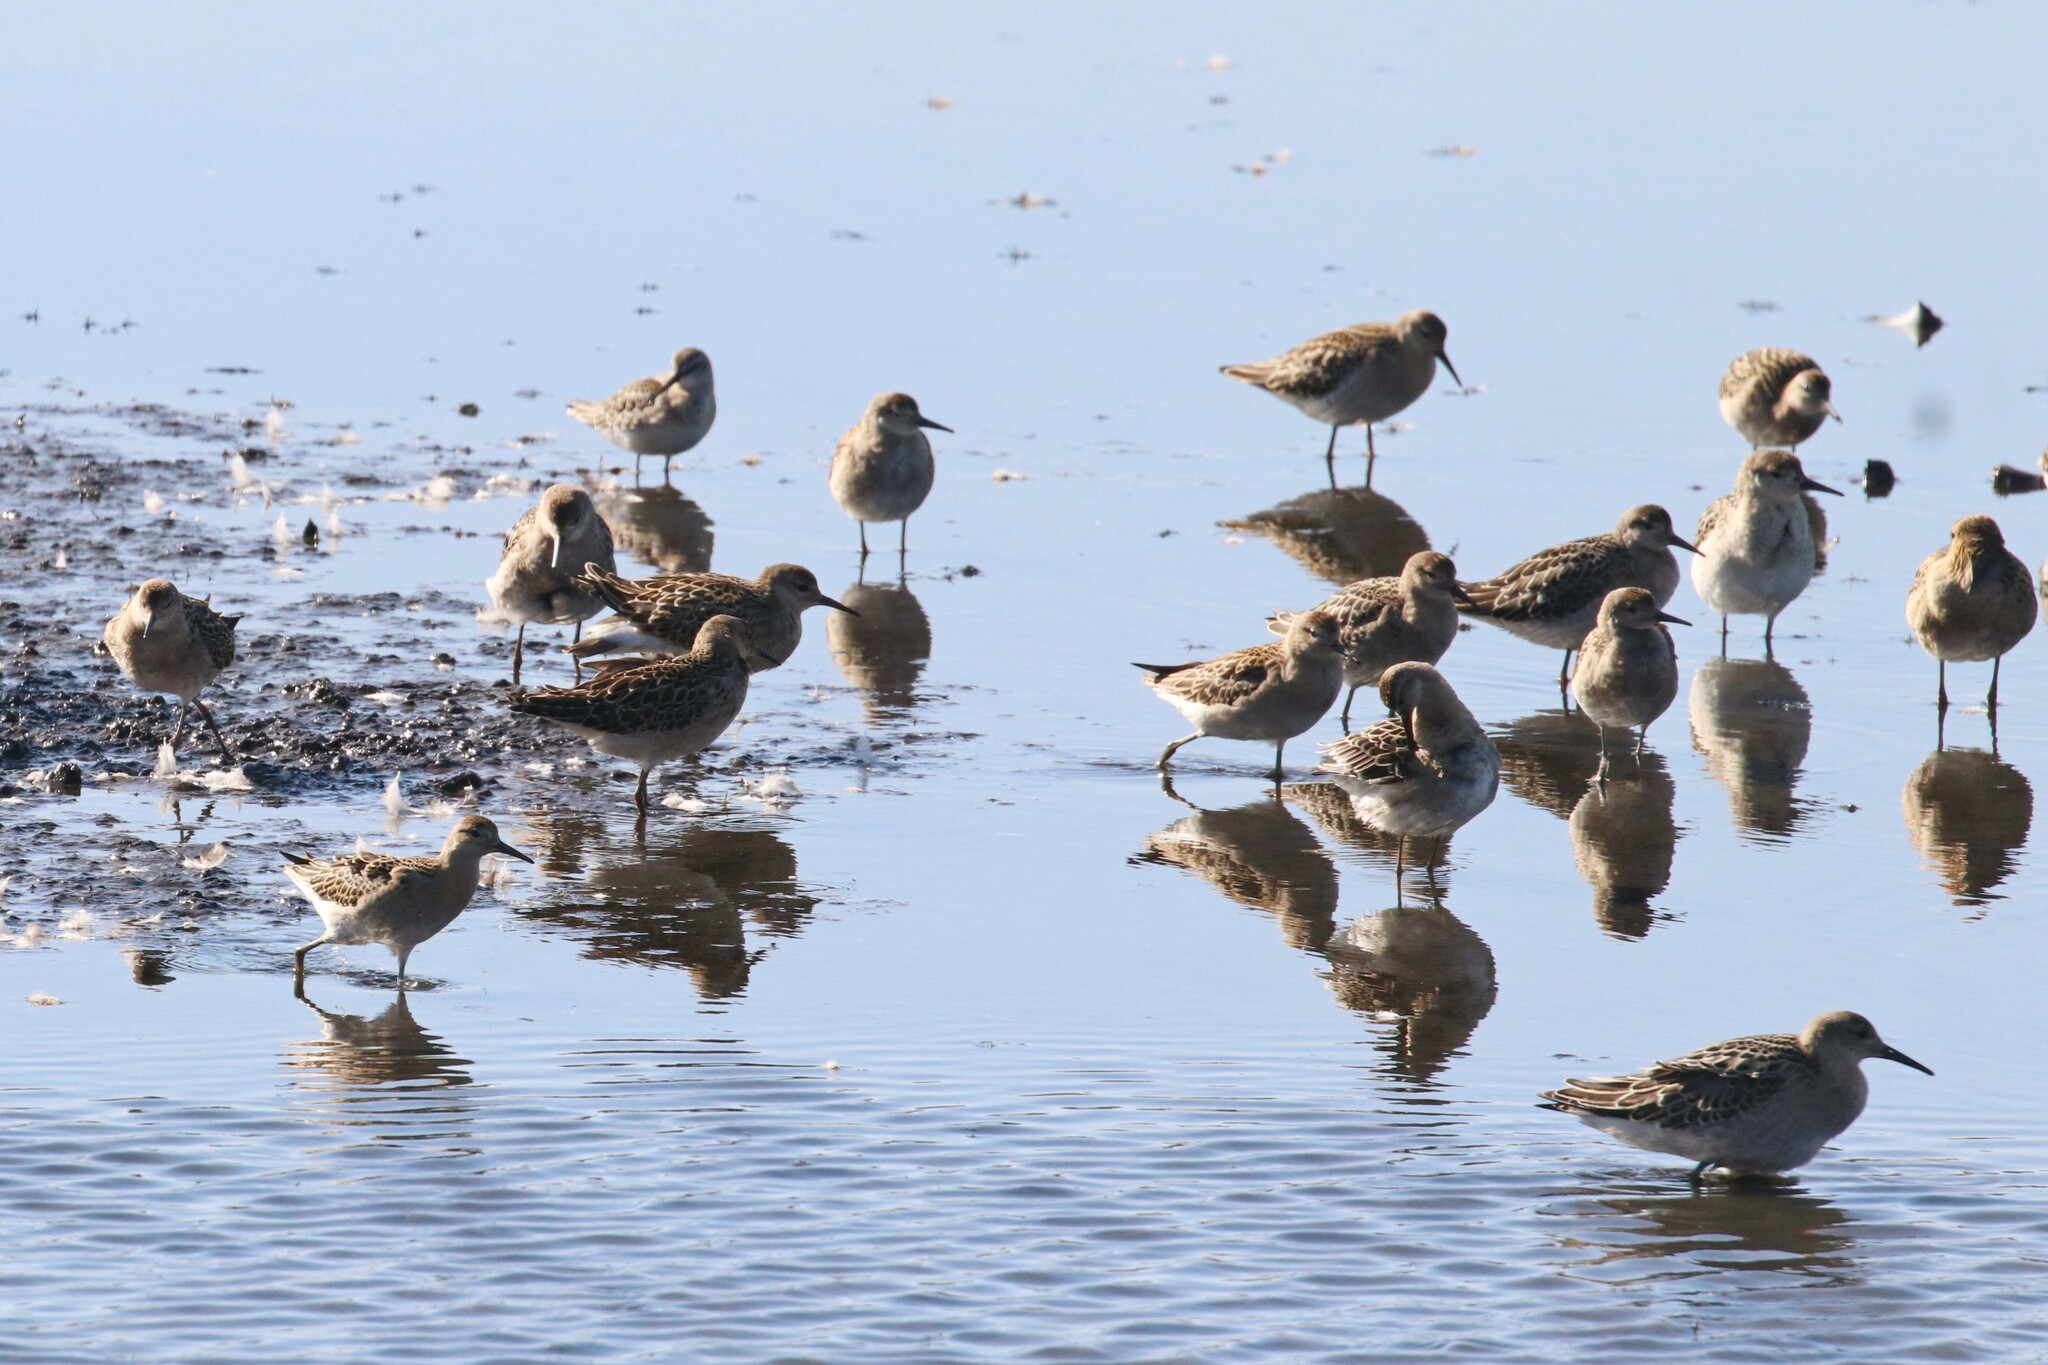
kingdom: Animalia
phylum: Chordata
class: Aves
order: Charadriiformes
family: Scolopacidae
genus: Calidris
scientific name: Calidris pugnax
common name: Ruff
